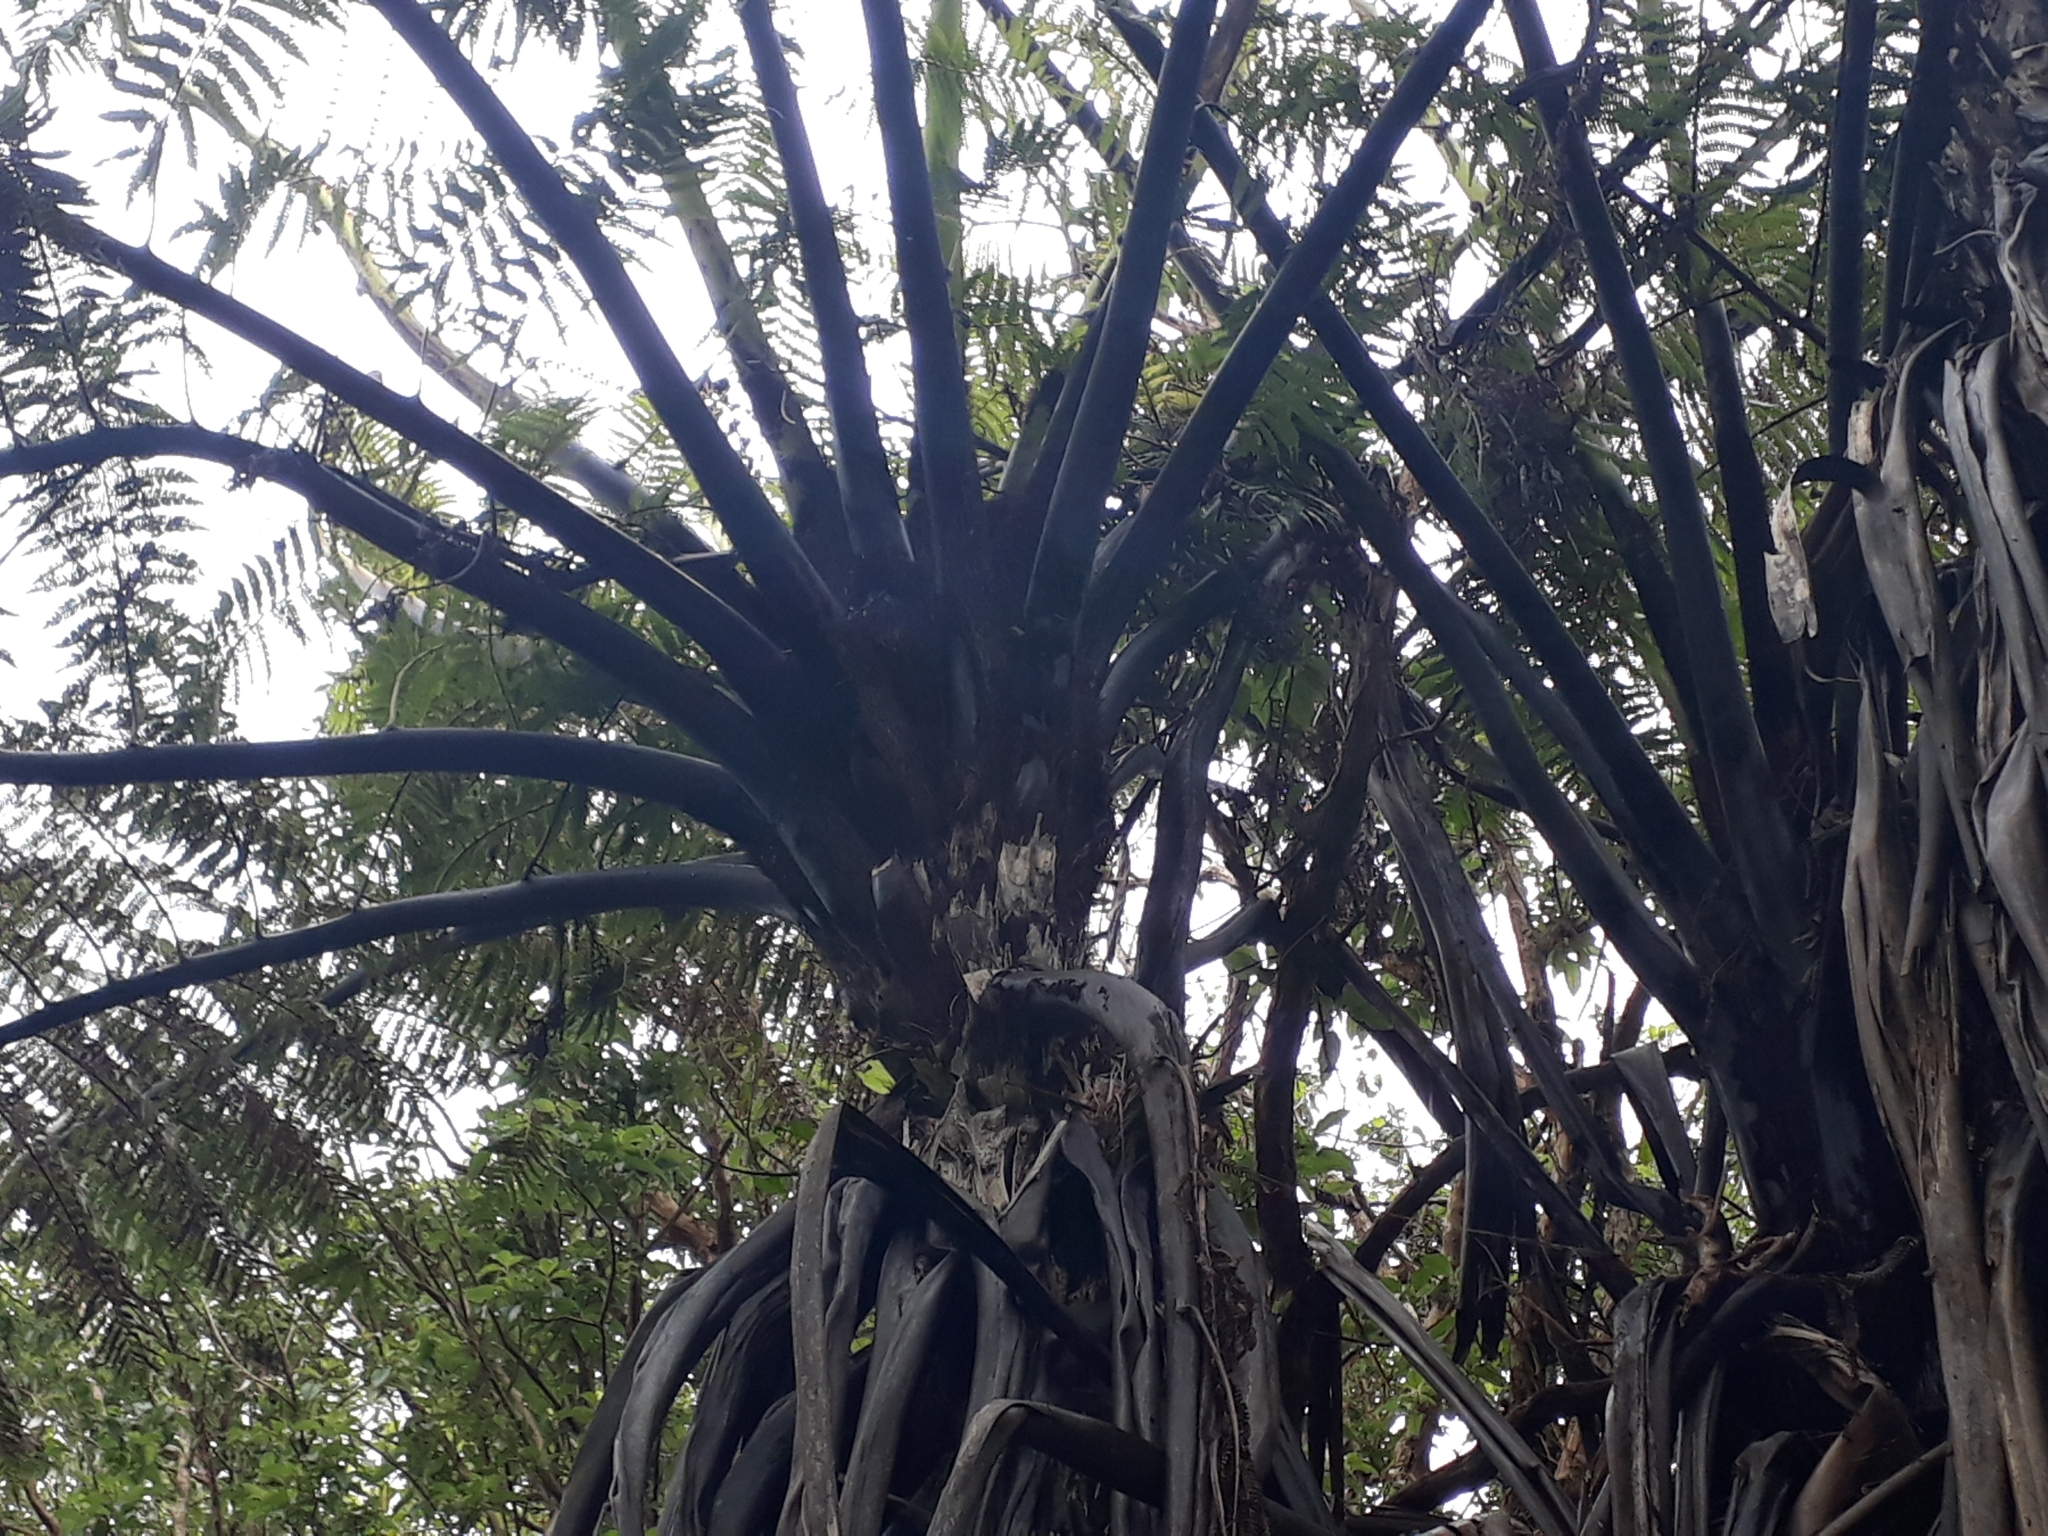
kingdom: Plantae
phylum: Tracheophyta
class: Polypodiopsida
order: Cyatheales
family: Cyatheaceae
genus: Sphaeropteris
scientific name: Sphaeropteris medullaris
